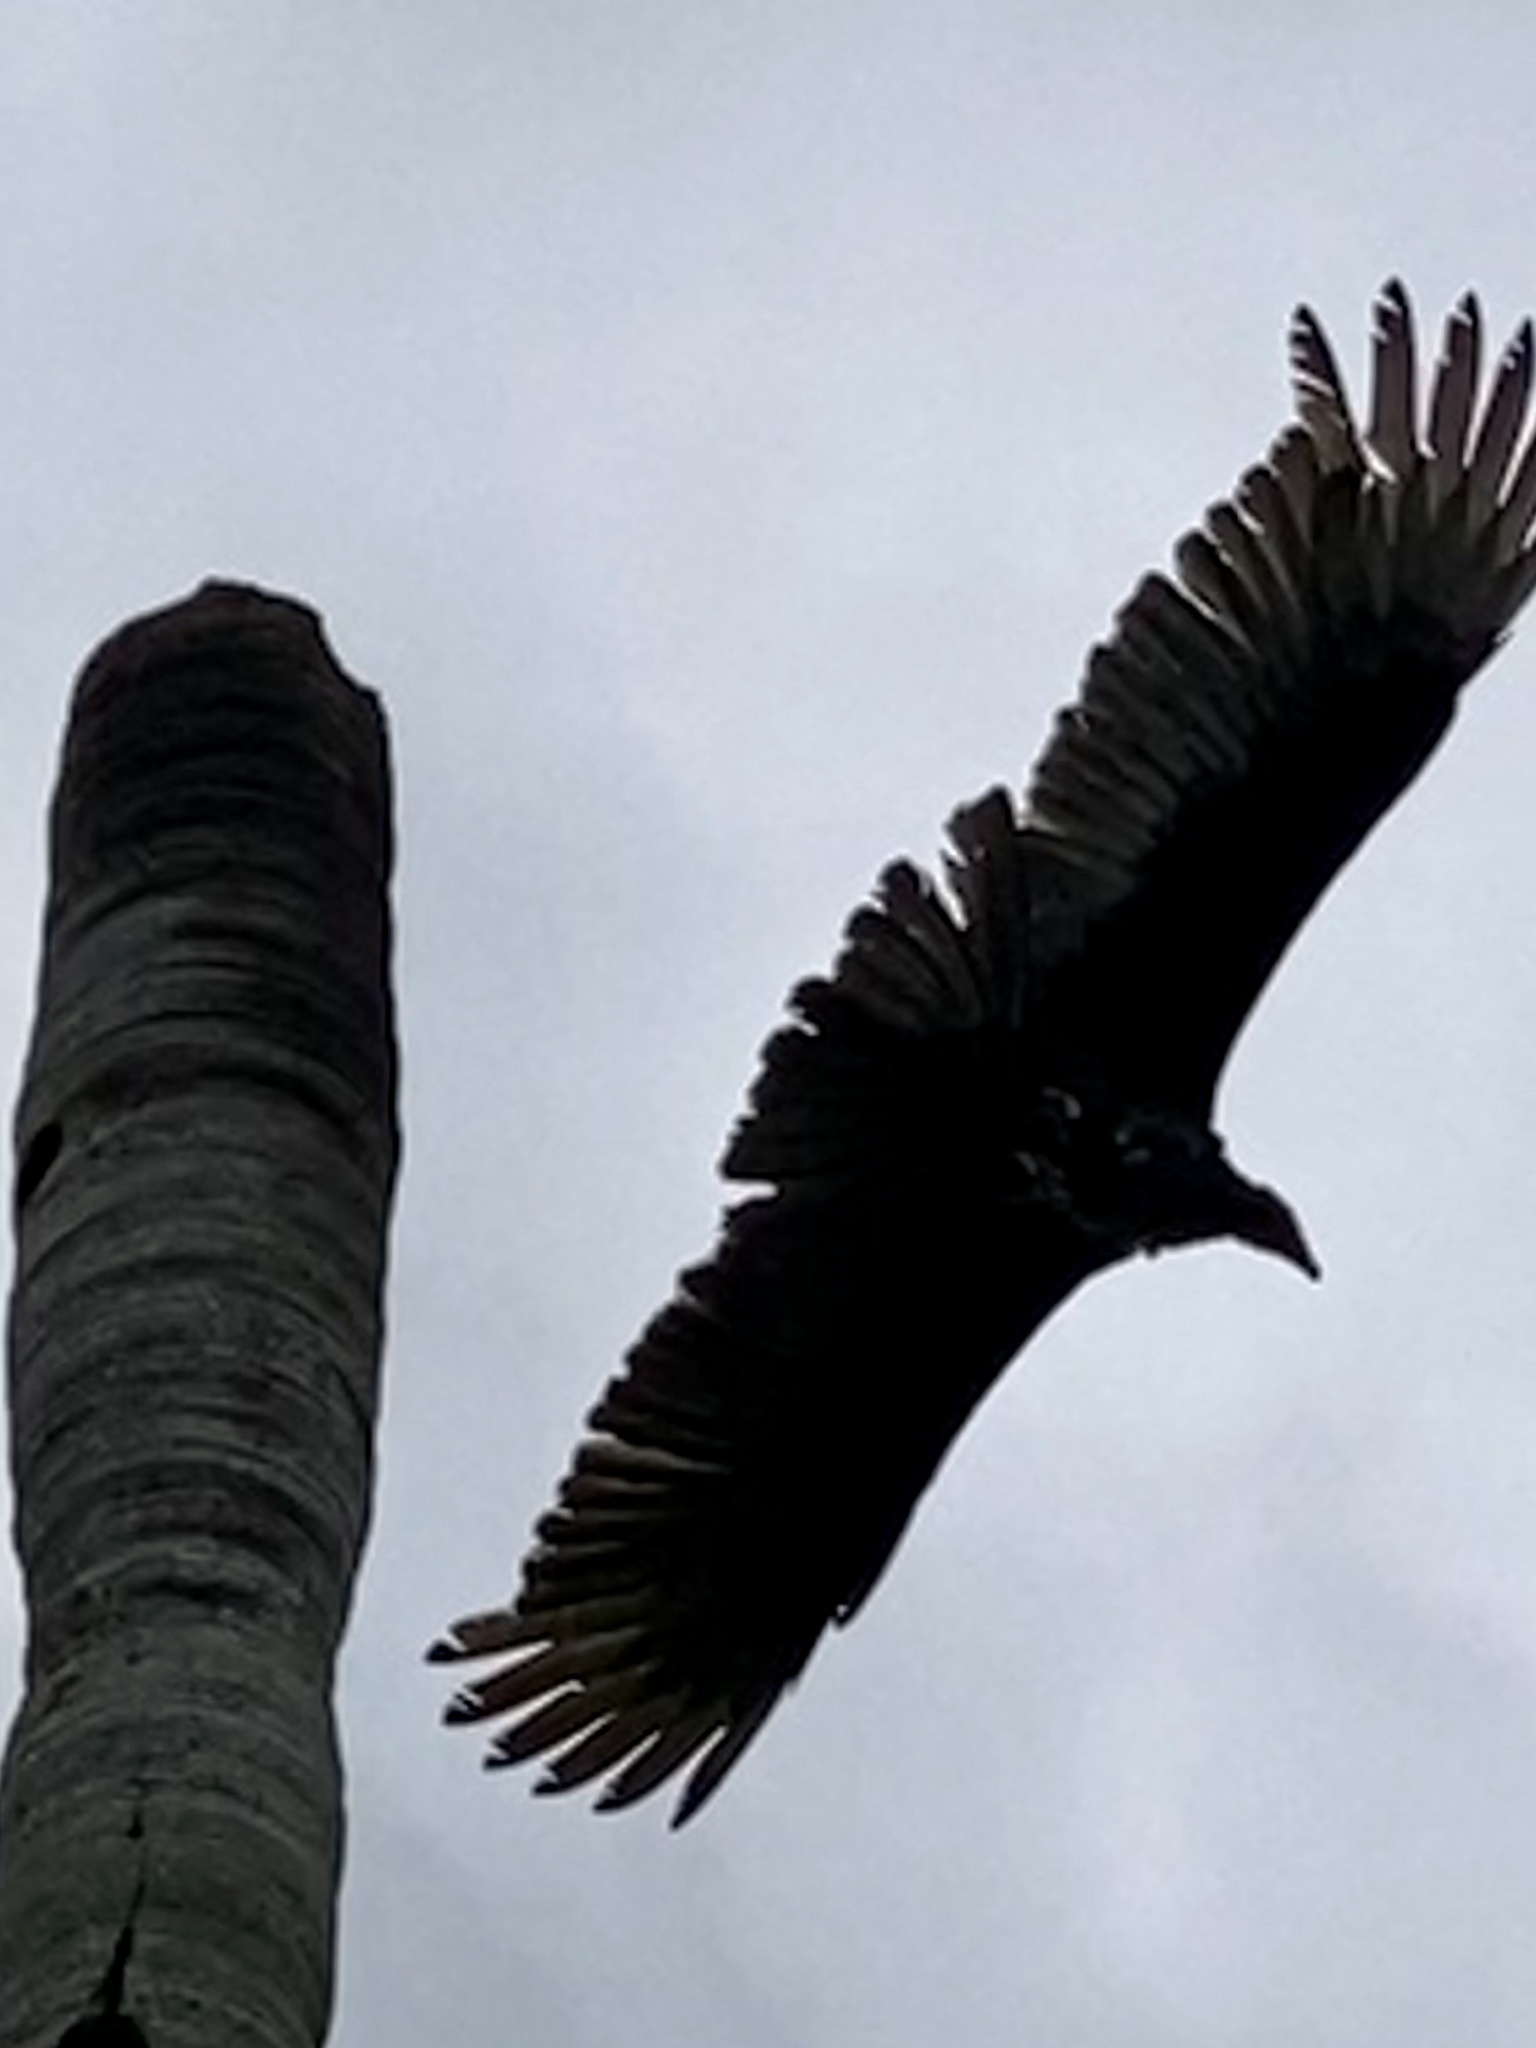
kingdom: Animalia
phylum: Chordata
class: Aves
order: Accipitriformes
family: Cathartidae
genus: Cathartes
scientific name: Cathartes aura
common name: Turkey vulture
